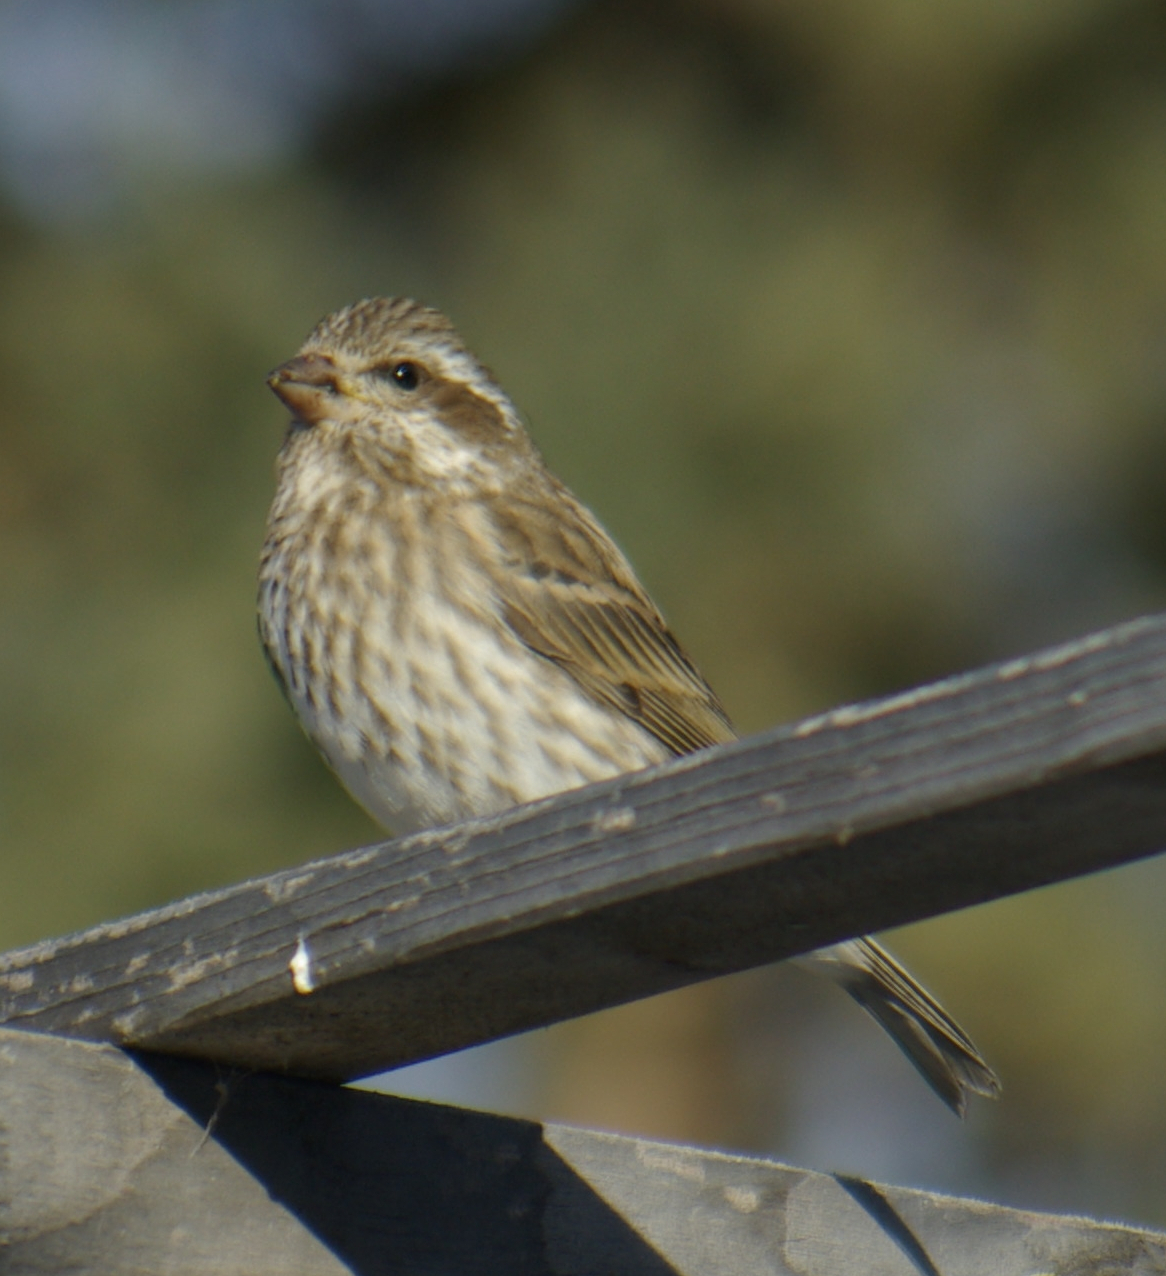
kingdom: Animalia
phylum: Chordata
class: Aves
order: Passeriformes
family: Fringillidae
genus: Haemorhous
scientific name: Haemorhous purpureus
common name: Purple finch
